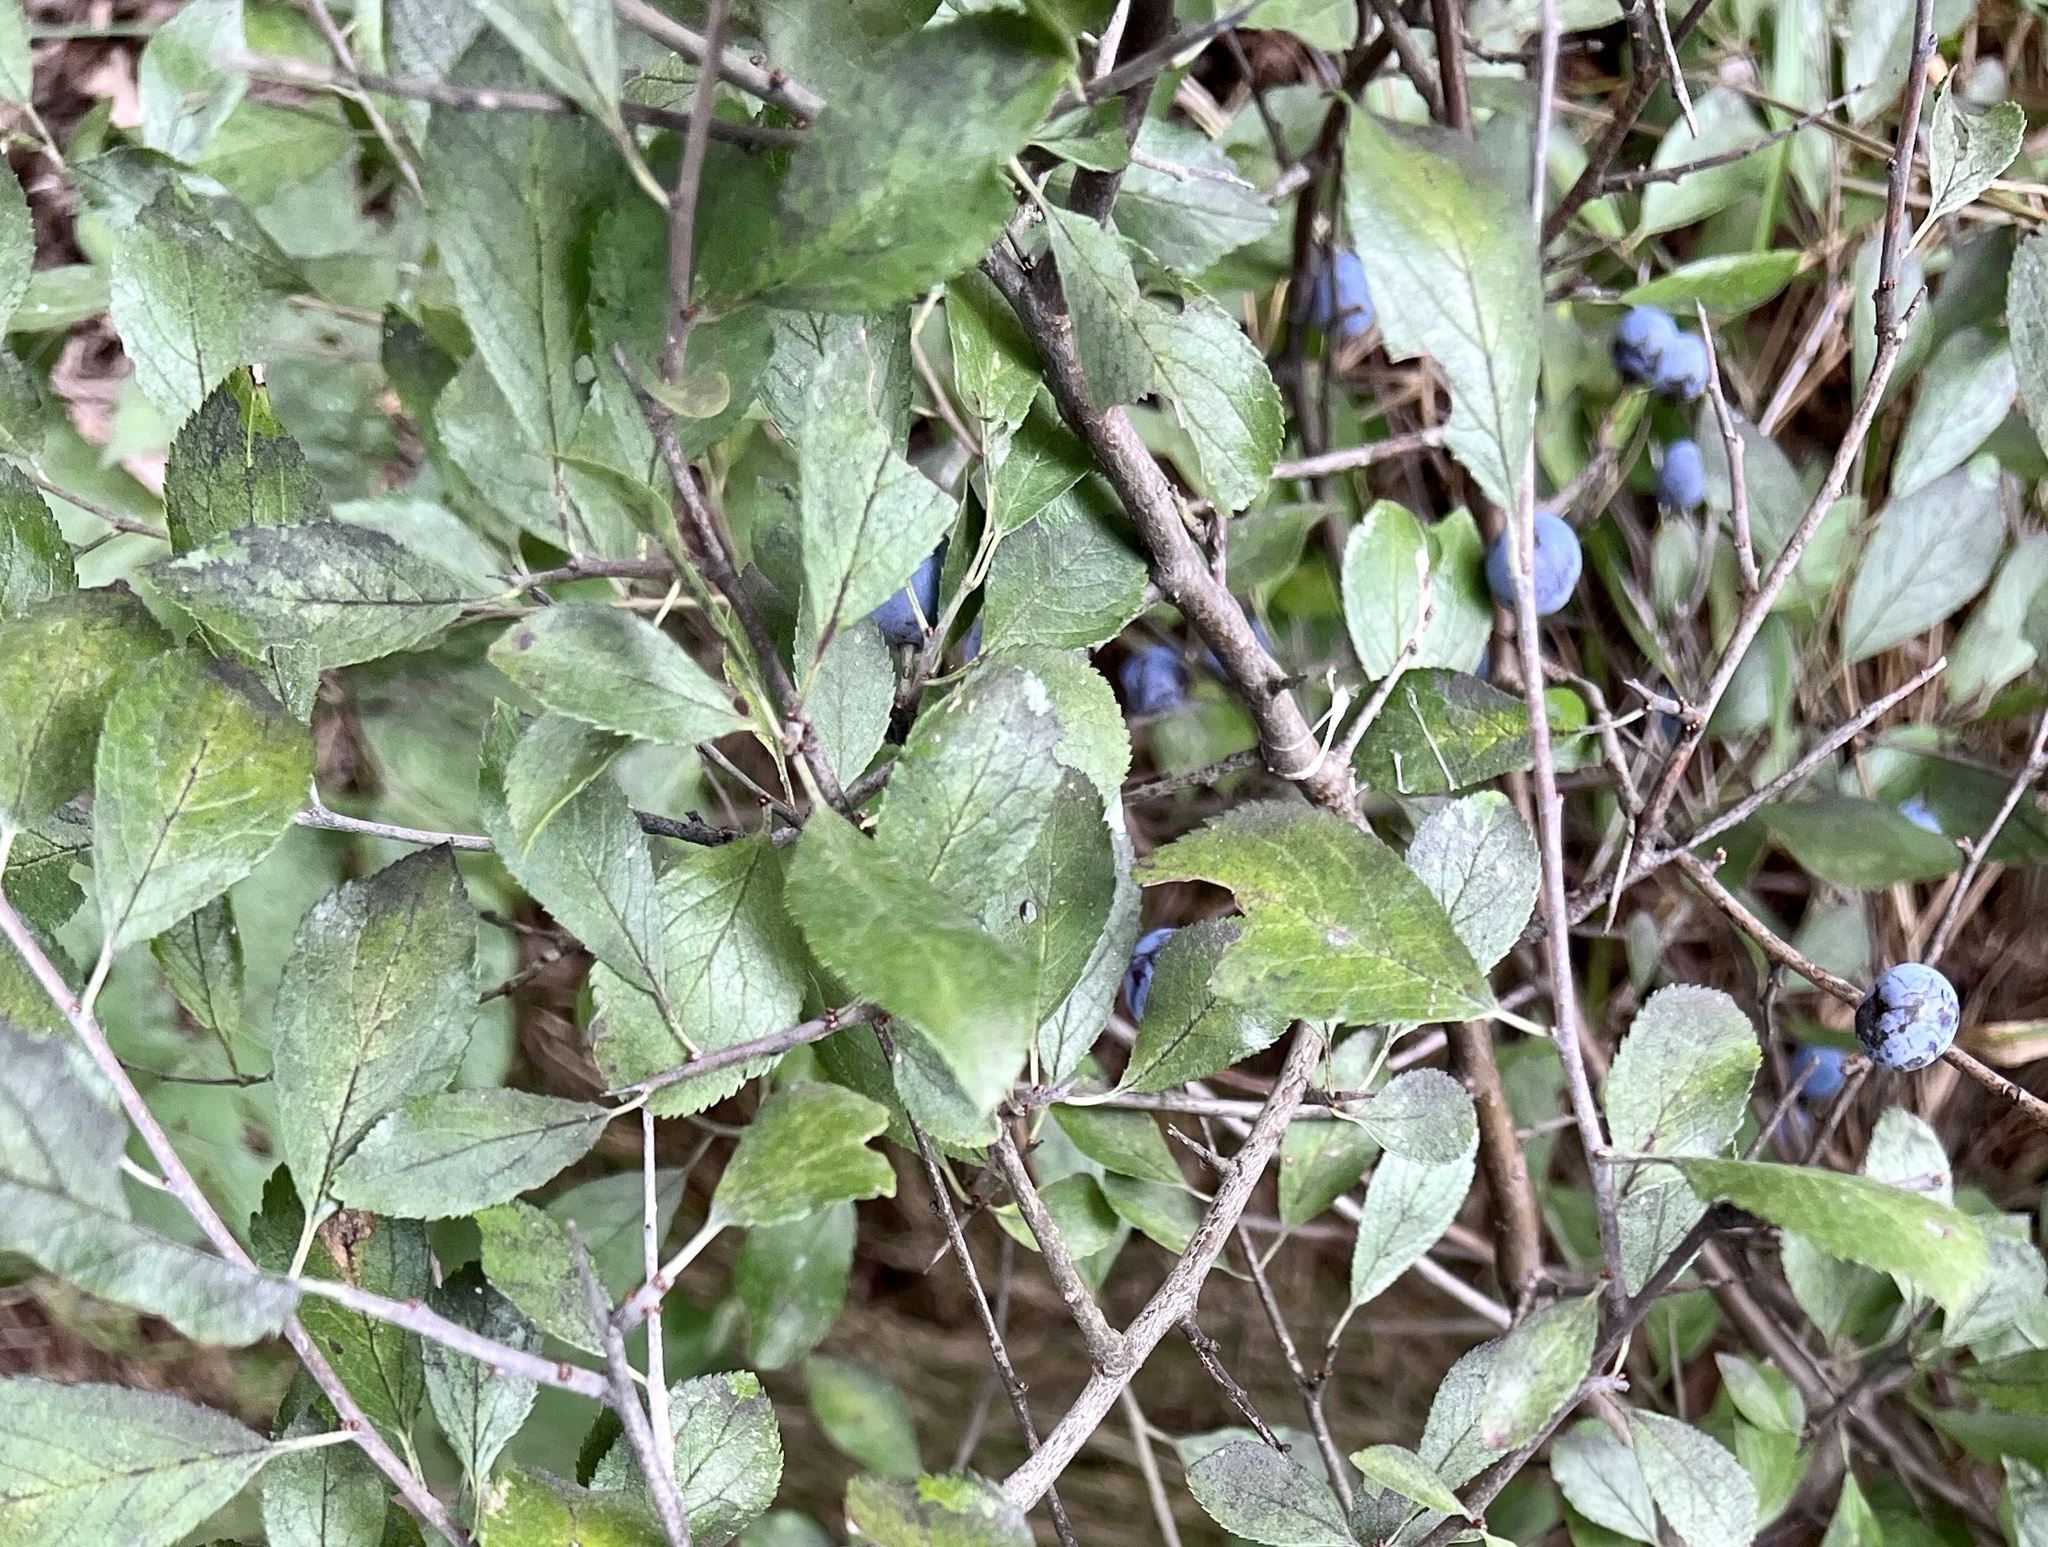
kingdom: Plantae
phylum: Tracheophyta
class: Magnoliopsida
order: Rosales
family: Rosaceae
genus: Prunus
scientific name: Prunus spinosa
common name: Blackthorn
